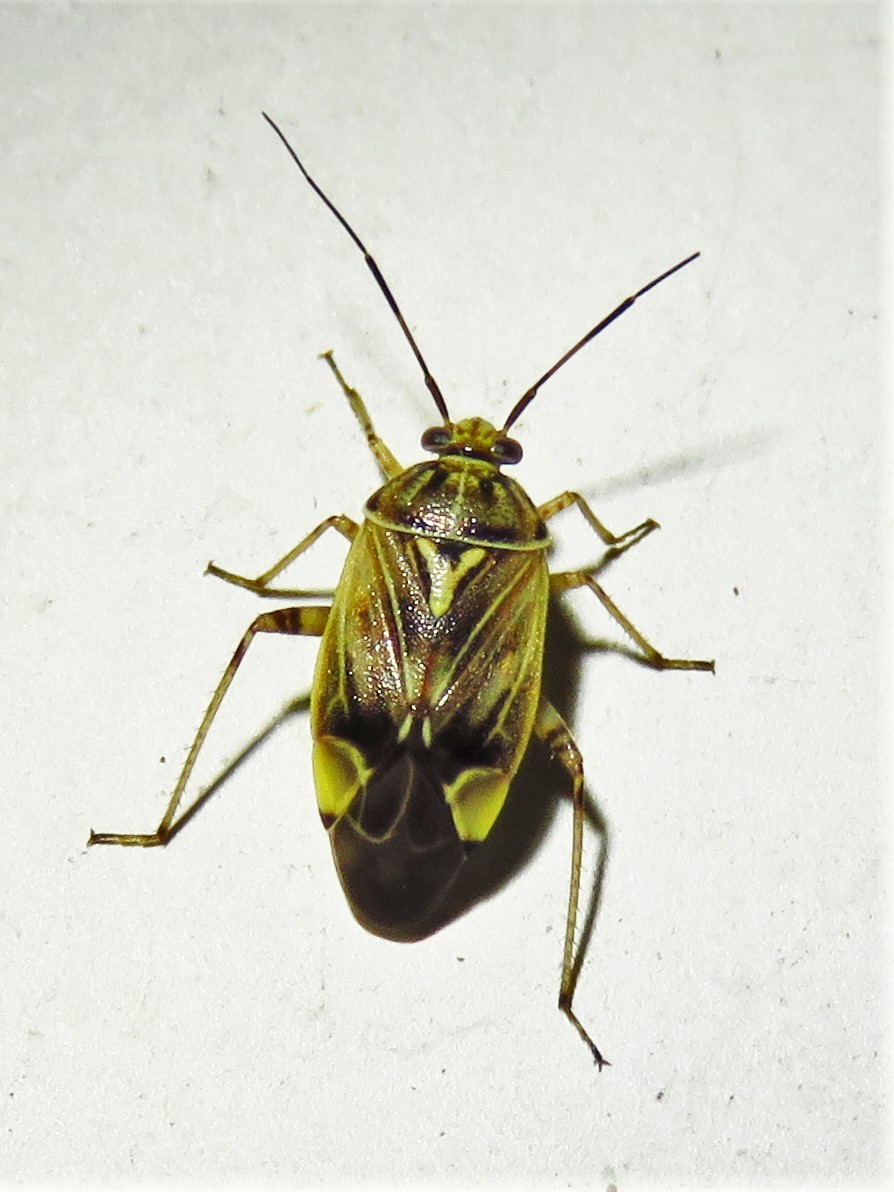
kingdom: Animalia
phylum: Arthropoda
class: Insecta
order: Hemiptera
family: Miridae
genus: Lygus
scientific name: Lygus lineolaris
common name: North american tarnished plant bug
